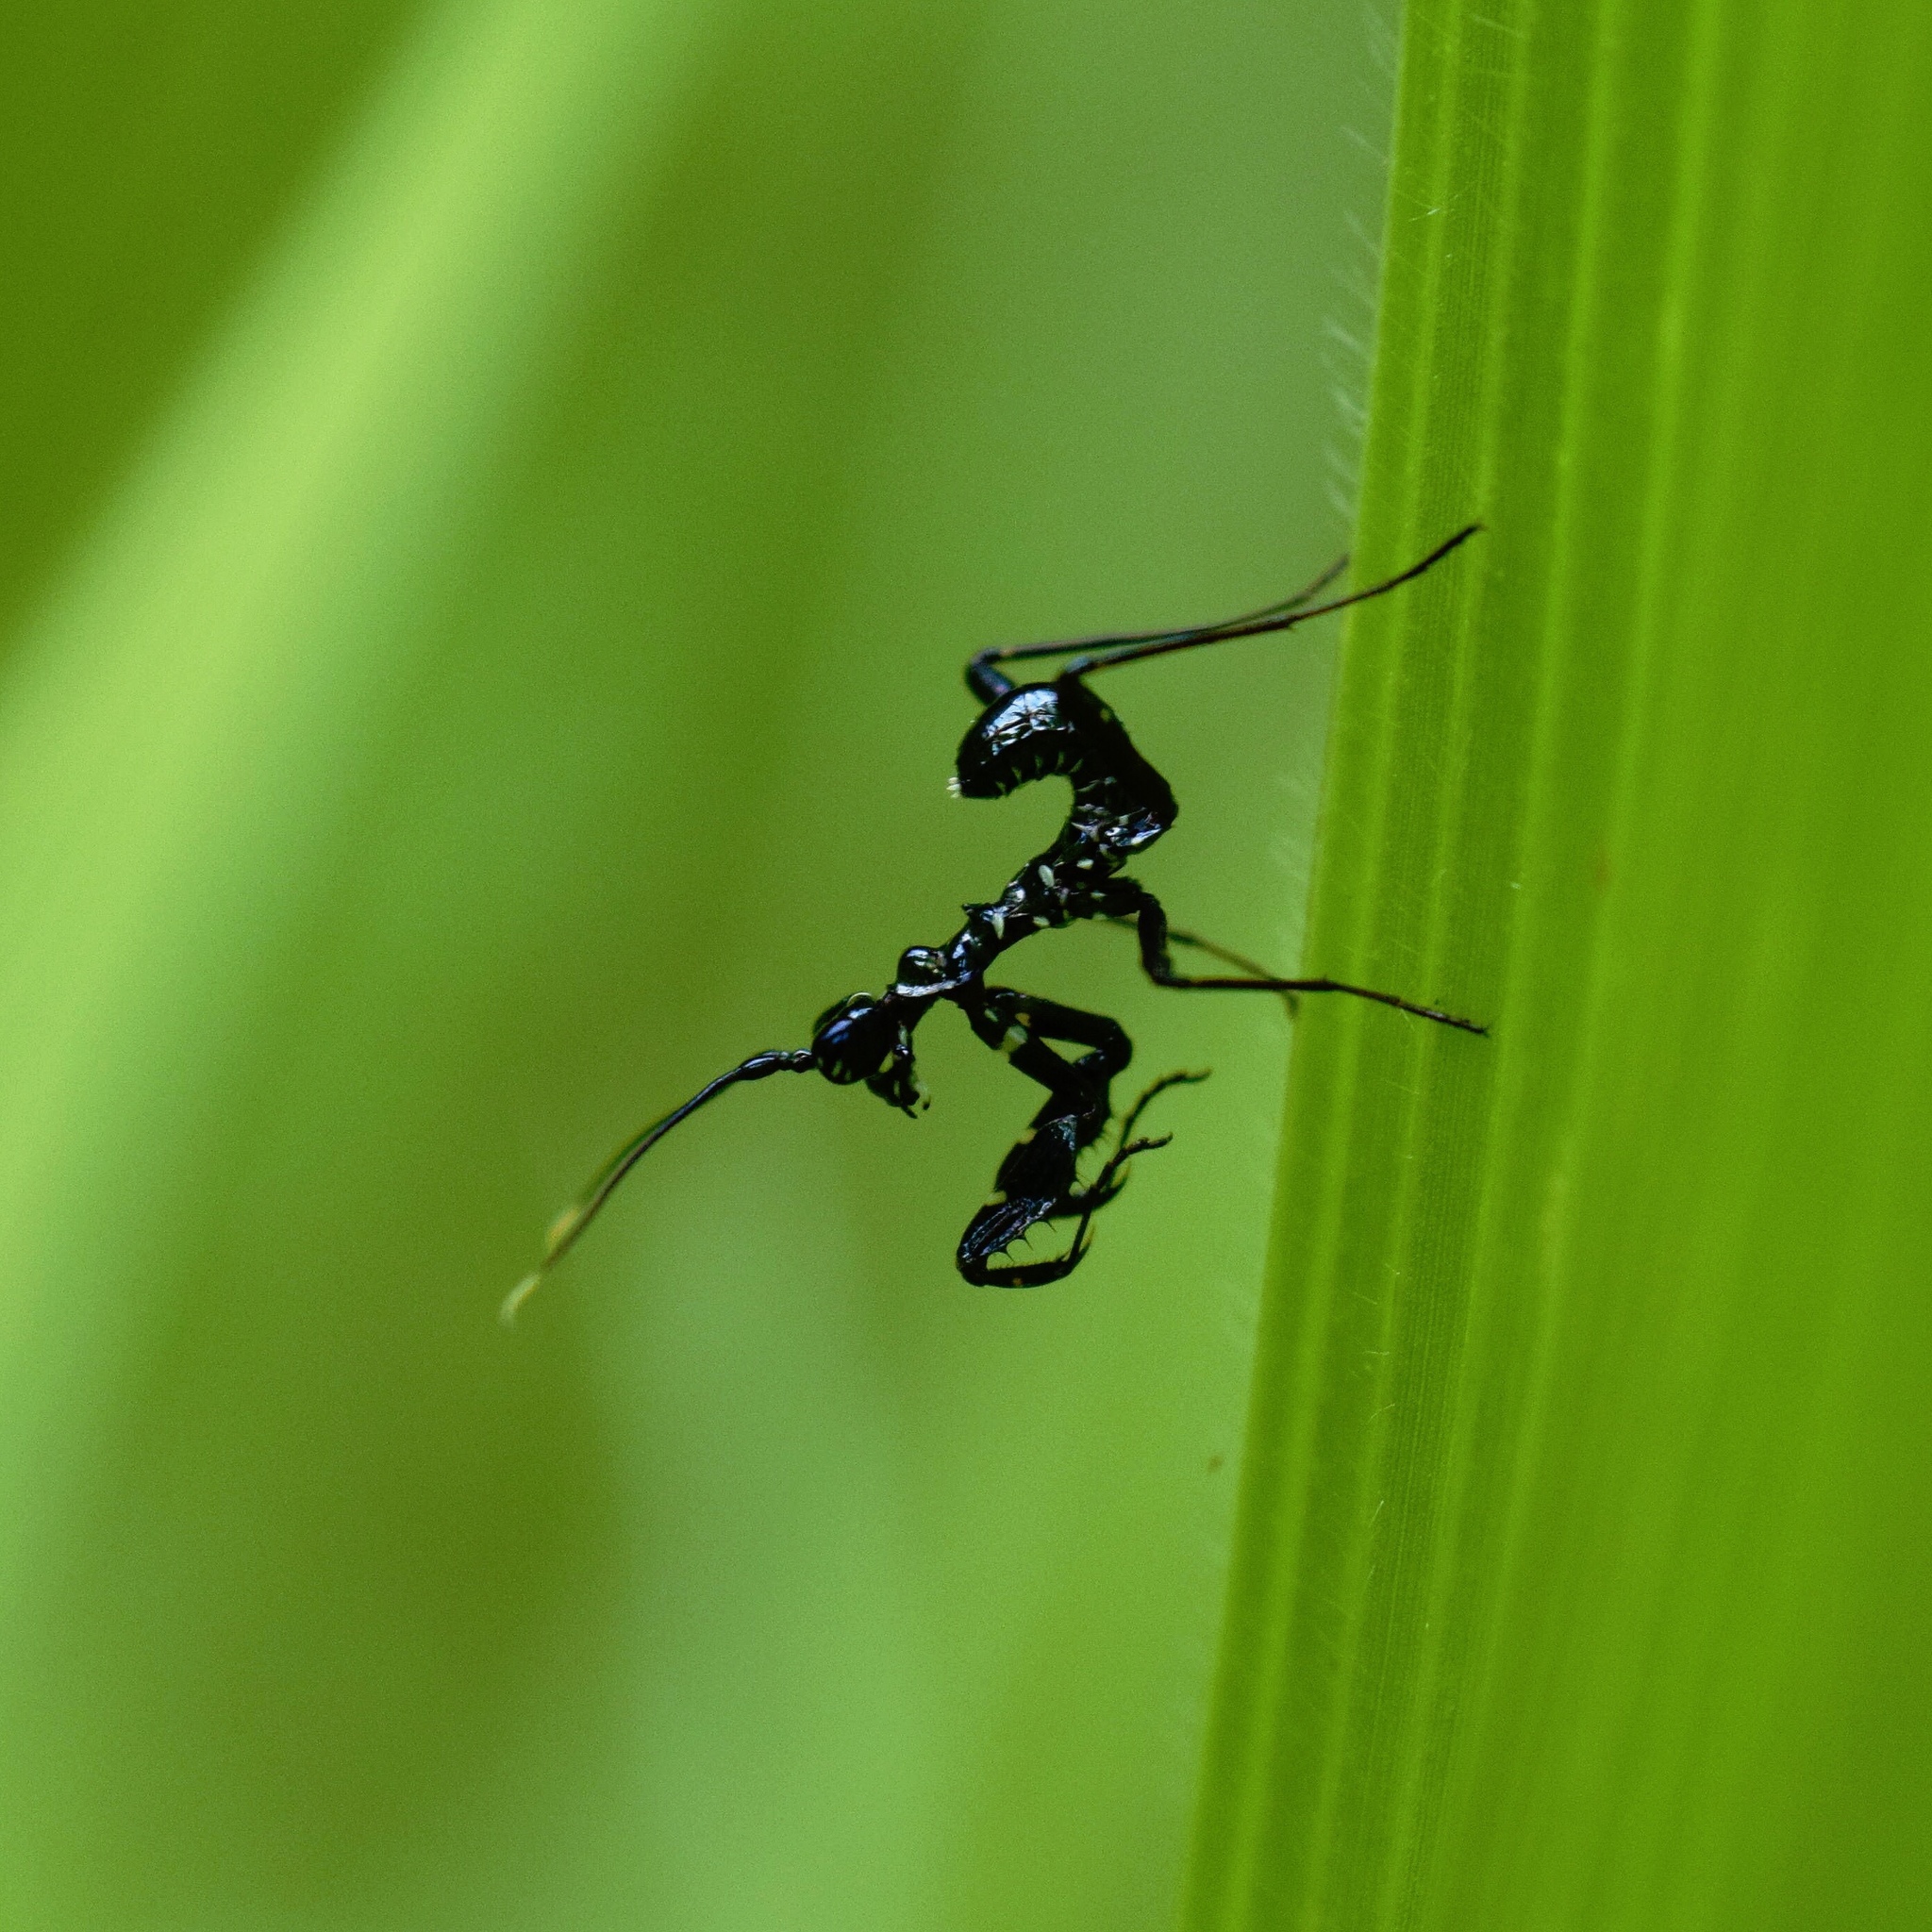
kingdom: Animalia
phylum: Arthropoda
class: Insecta
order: Mantodea
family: Hymenopodidae
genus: Pseudocreobotra
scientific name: Pseudocreobotra wahlbergi
